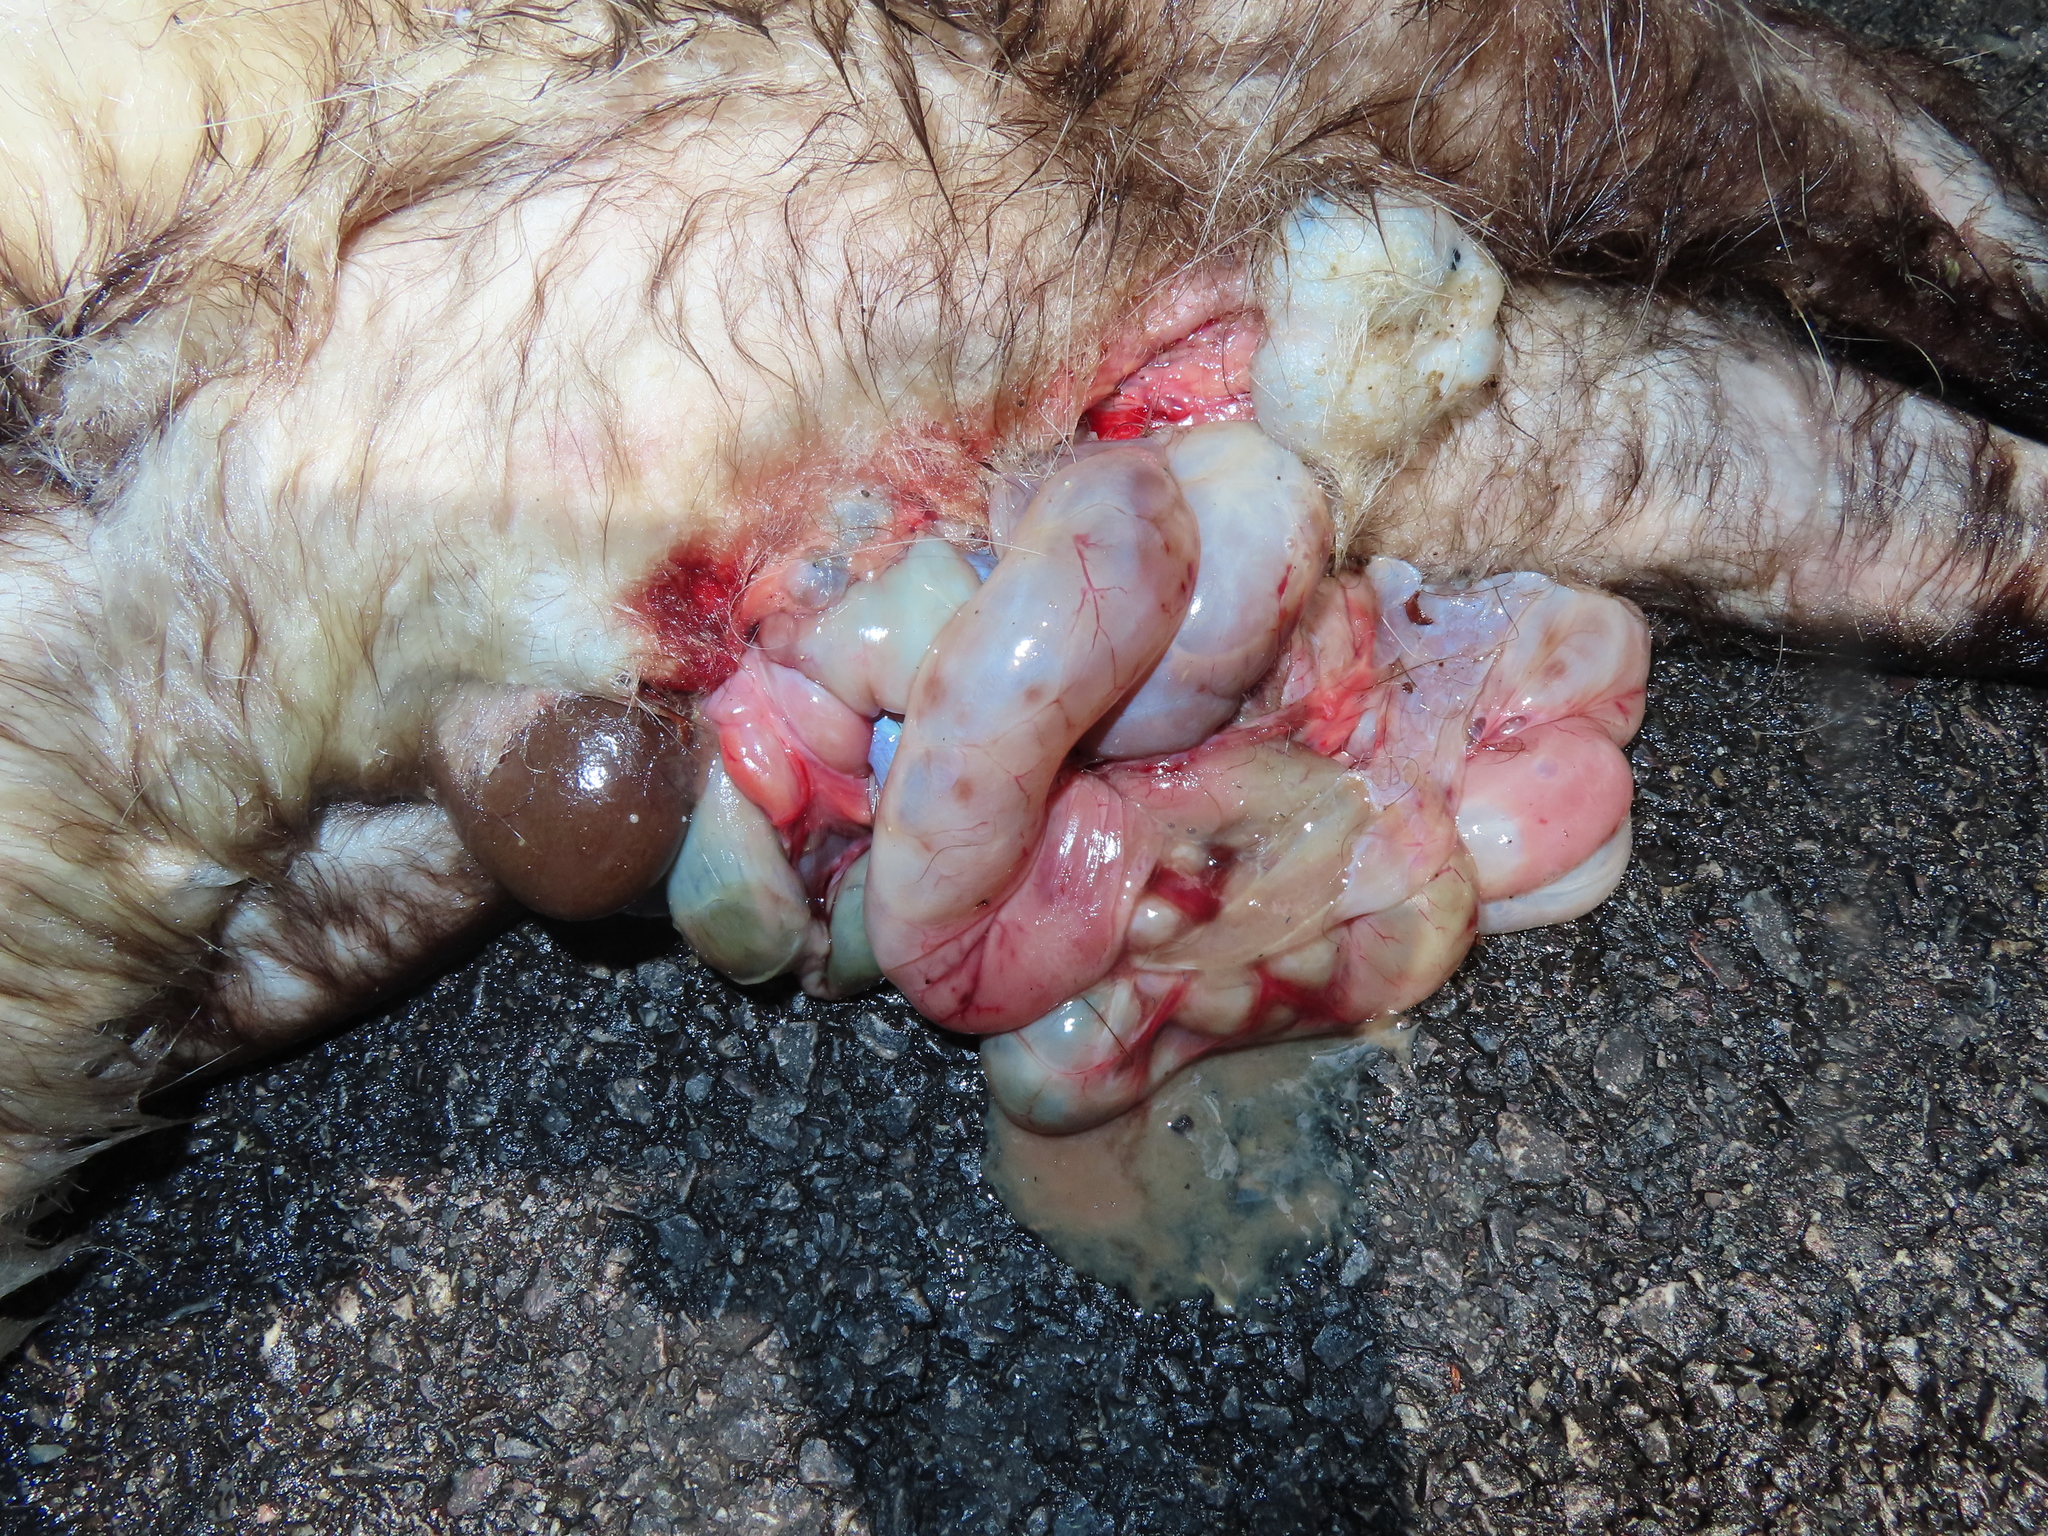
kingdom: Animalia
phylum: Chordata
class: Mammalia
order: Didelphimorphia
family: Didelphidae
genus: Didelphis
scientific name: Didelphis virginiana
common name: Virginia opossum
